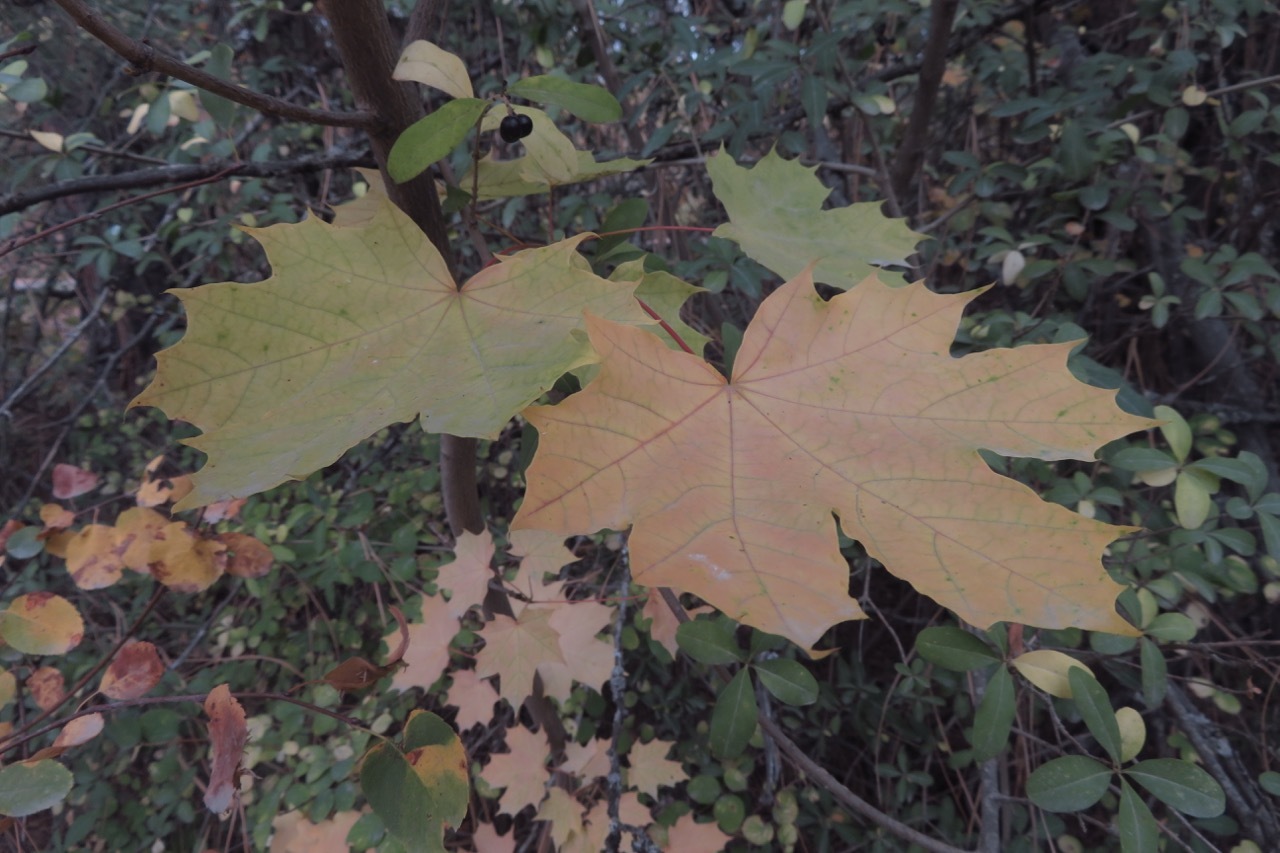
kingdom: Plantae
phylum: Tracheophyta
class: Magnoliopsida
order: Sapindales
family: Sapindaceae
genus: Acer
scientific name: Acer platanoides
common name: Norway maple
